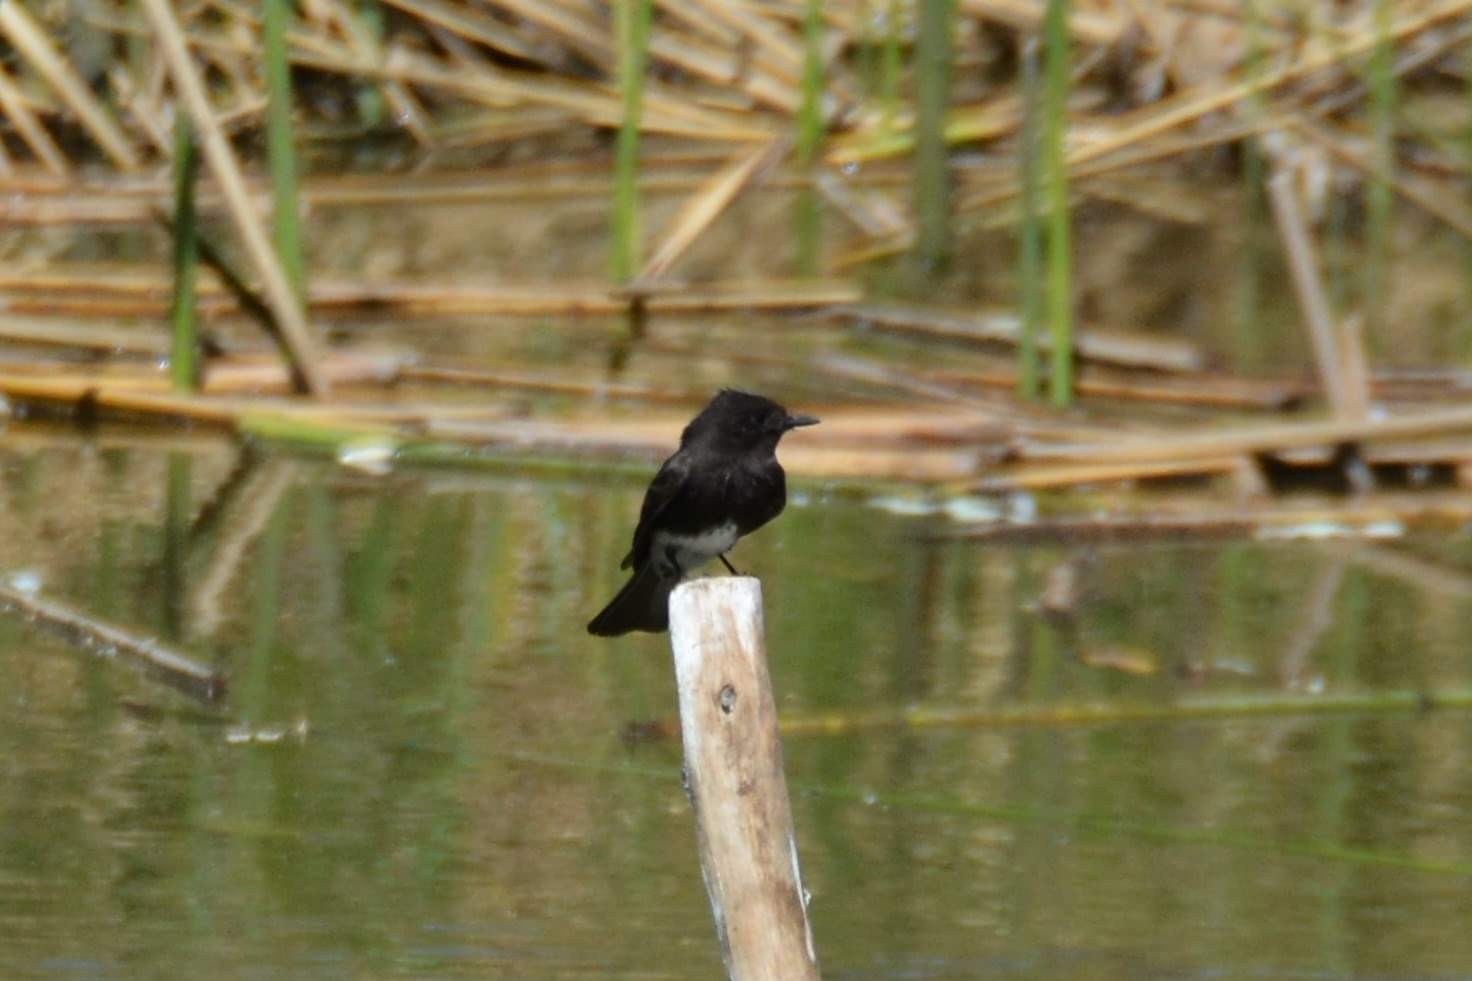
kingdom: Animalia
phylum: Chordata
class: Aves
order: Passeriformes
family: Tyrannidae
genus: Sayornis
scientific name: Sayornis nigricans
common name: Black phoebe
